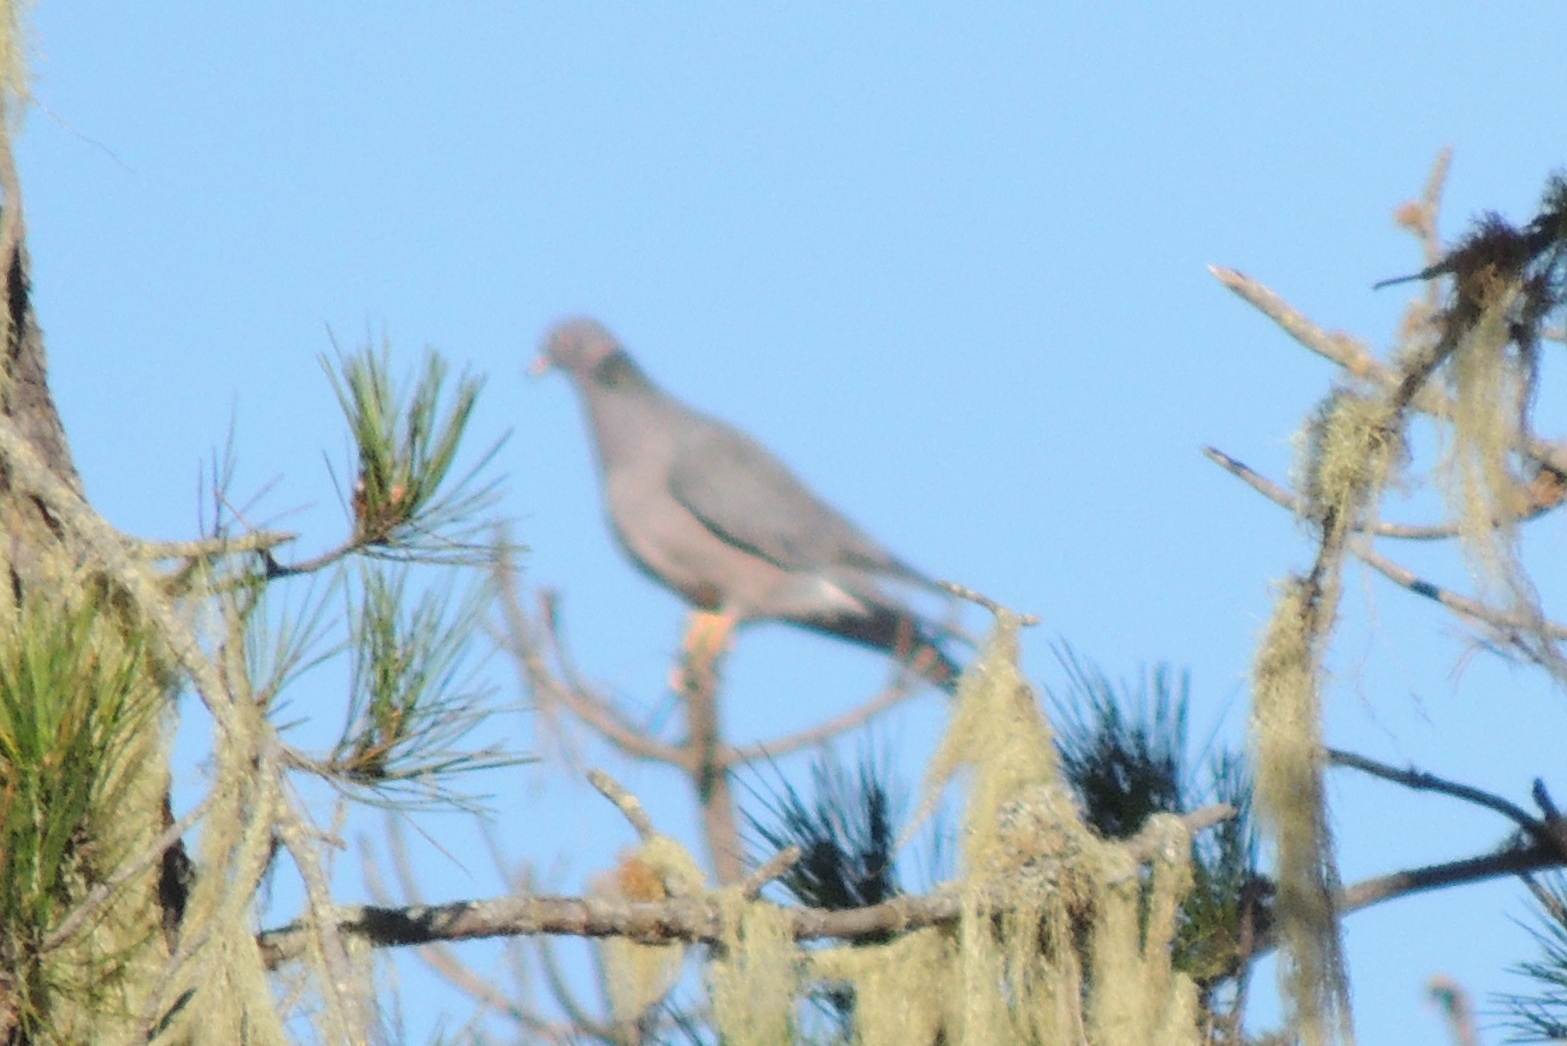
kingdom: Animalia
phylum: Chordata
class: Aves
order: Columbiformes
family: Columbidae
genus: Patagioenas
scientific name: Patagioenas fasciata
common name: Band-tailed pigeon
